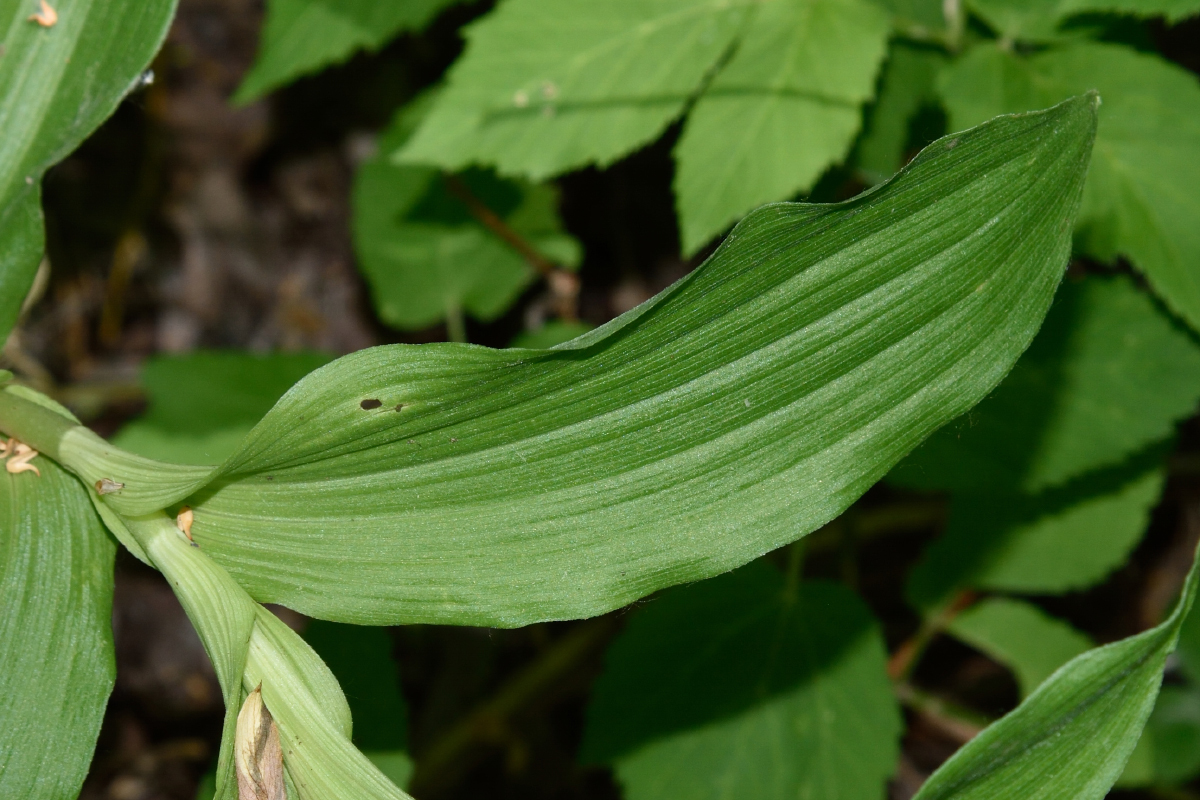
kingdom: Plantae
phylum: Tracheophyta
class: Liliopsida
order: Asparagales
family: Orchidaceae
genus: Epipactis
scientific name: Epipactis helleborine
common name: Broad-leaved helleborine
